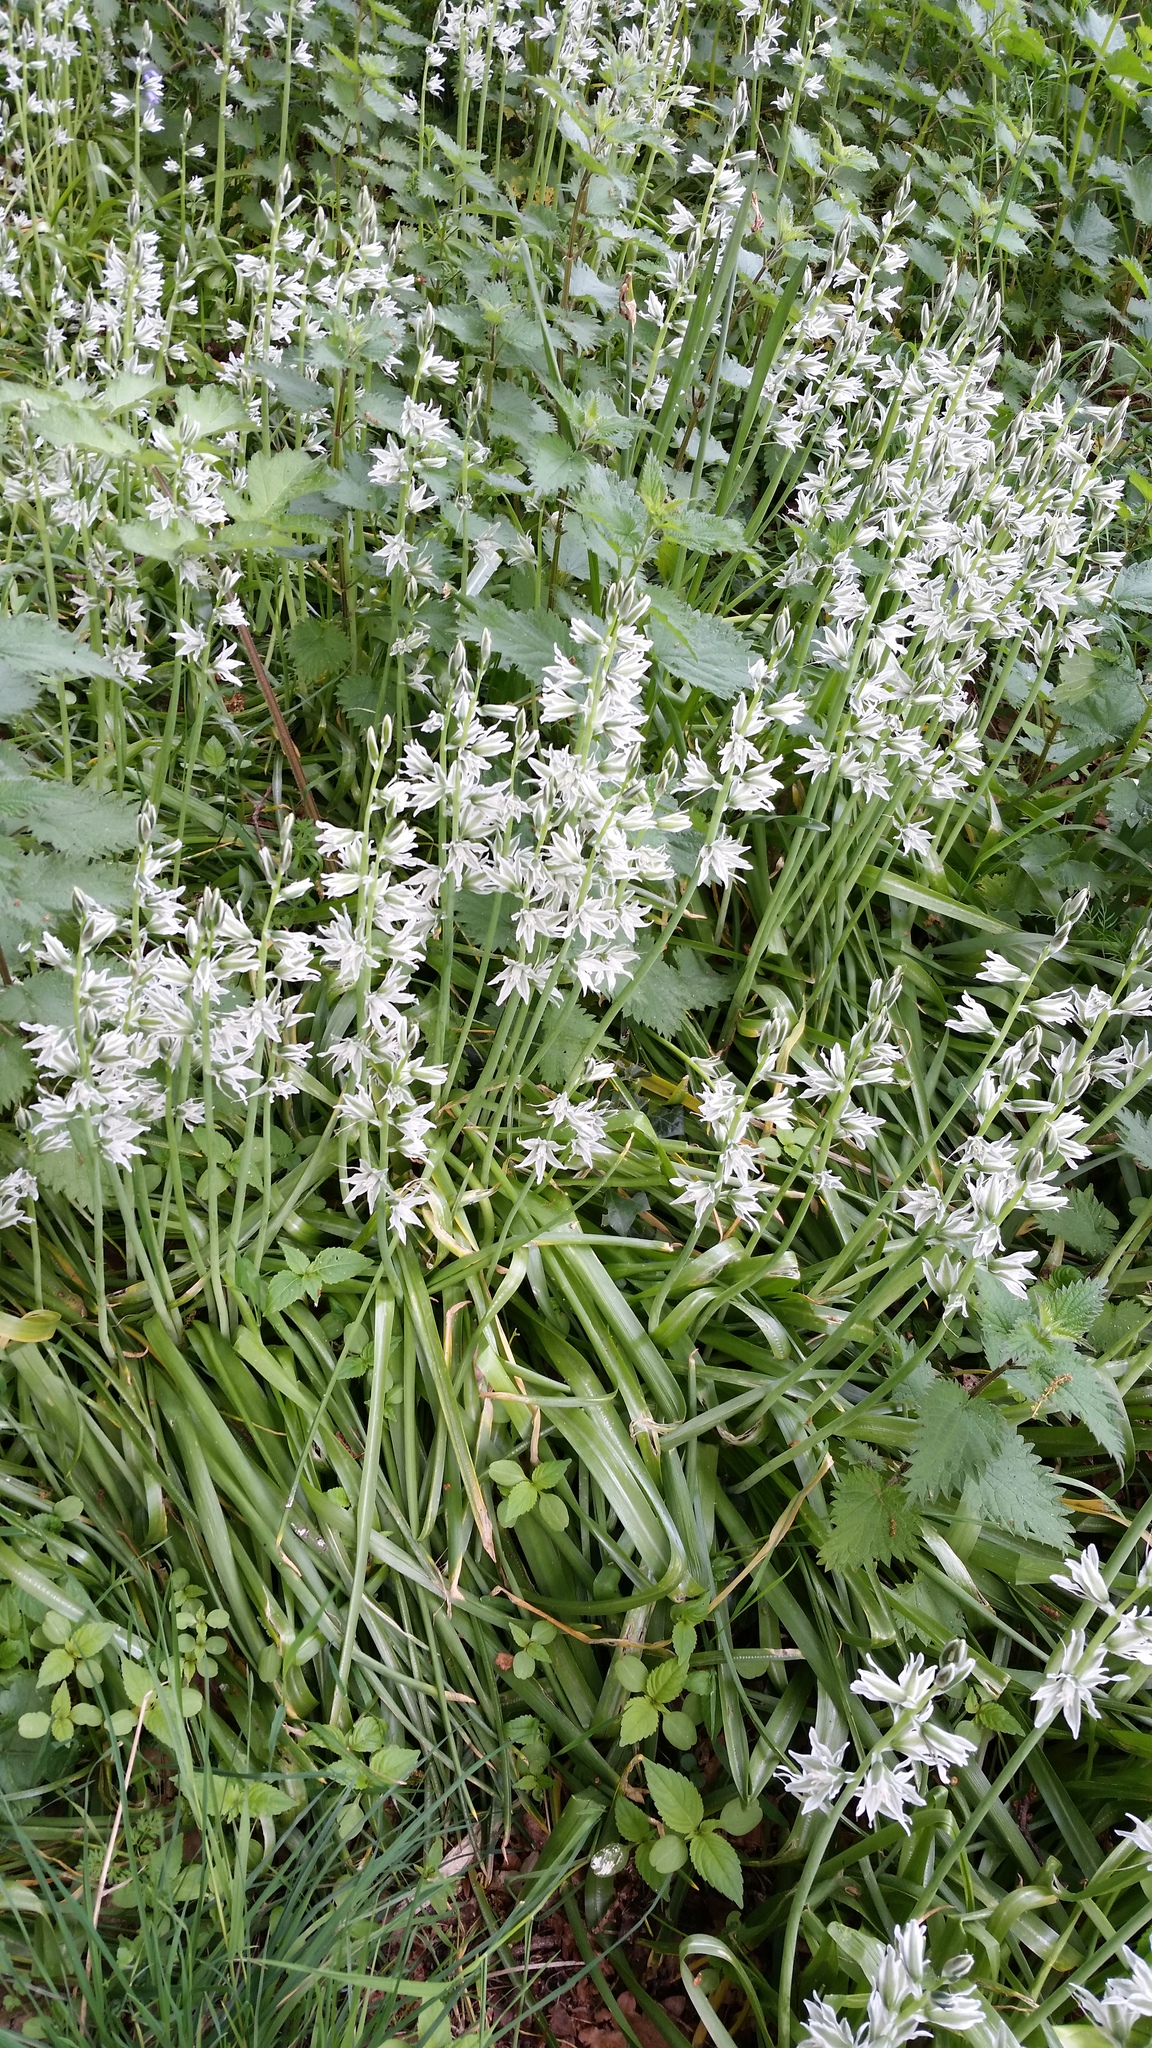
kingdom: Plantae
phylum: Tracheophyta
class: Liliopsida
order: Asparagales
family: Asparagaceae
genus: Ornithogalum
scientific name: Ornithogalum nutans
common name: Drooping star-of-bethlehem
